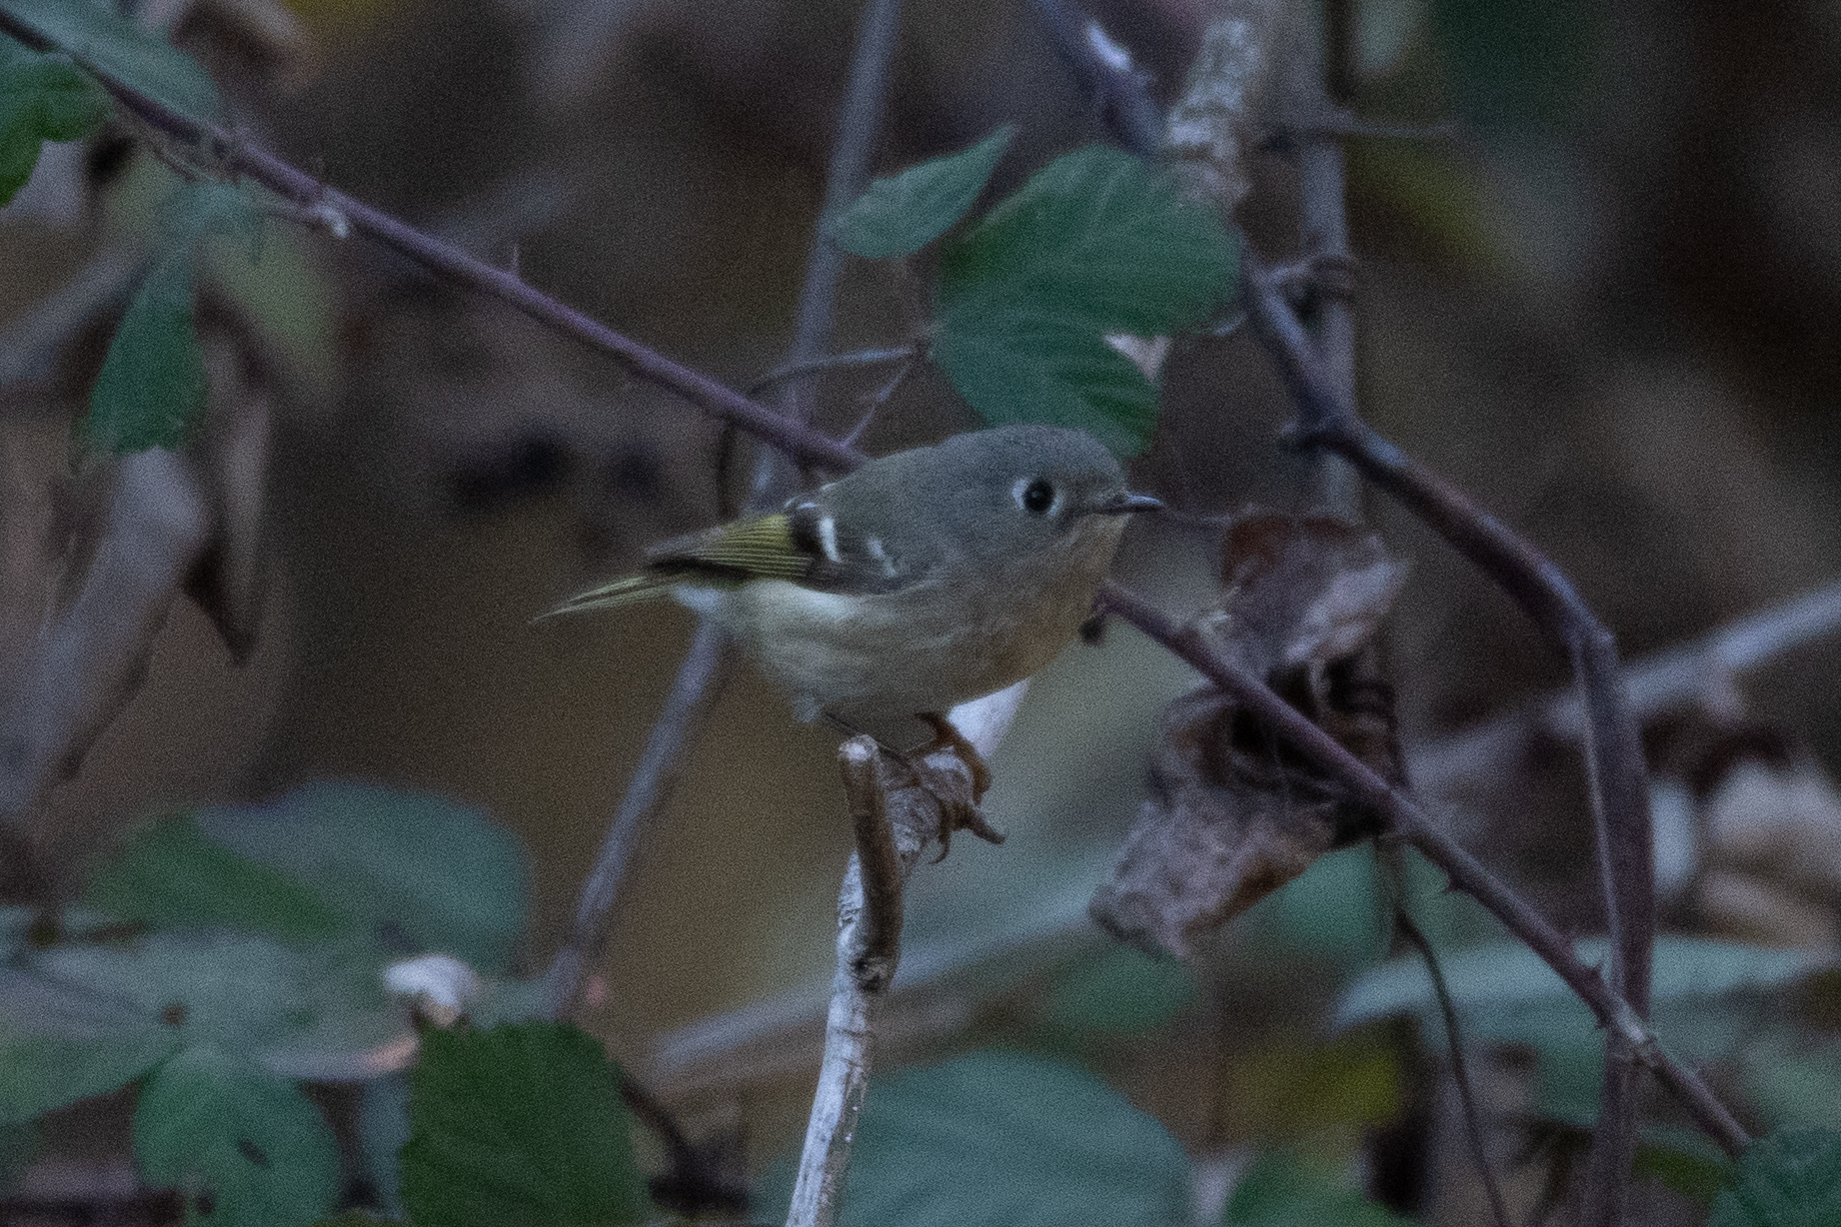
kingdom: Animalia
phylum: Chordata
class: Aves
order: Passeriformes
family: Regulidae
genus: Regulus
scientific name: Regulus calendula
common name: Ruby-crowned kinglet
